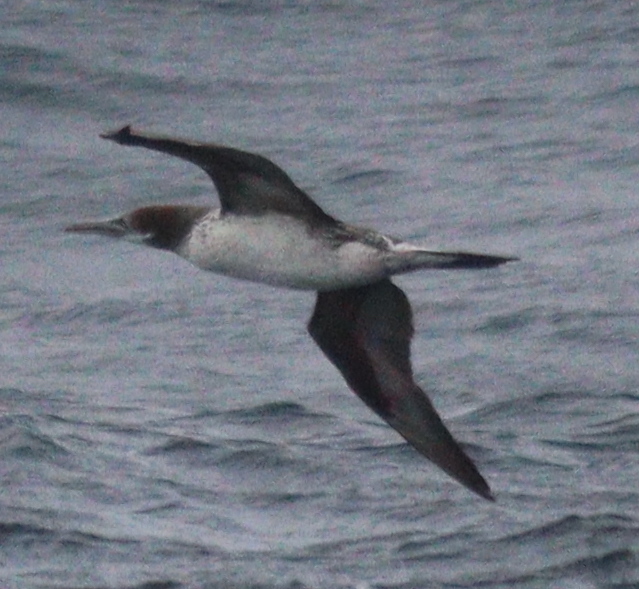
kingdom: Animalia
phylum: Chordata
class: Aves
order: Suliformes
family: Sulidae
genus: Morus
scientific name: Morus bassanus
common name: Northern gannet
